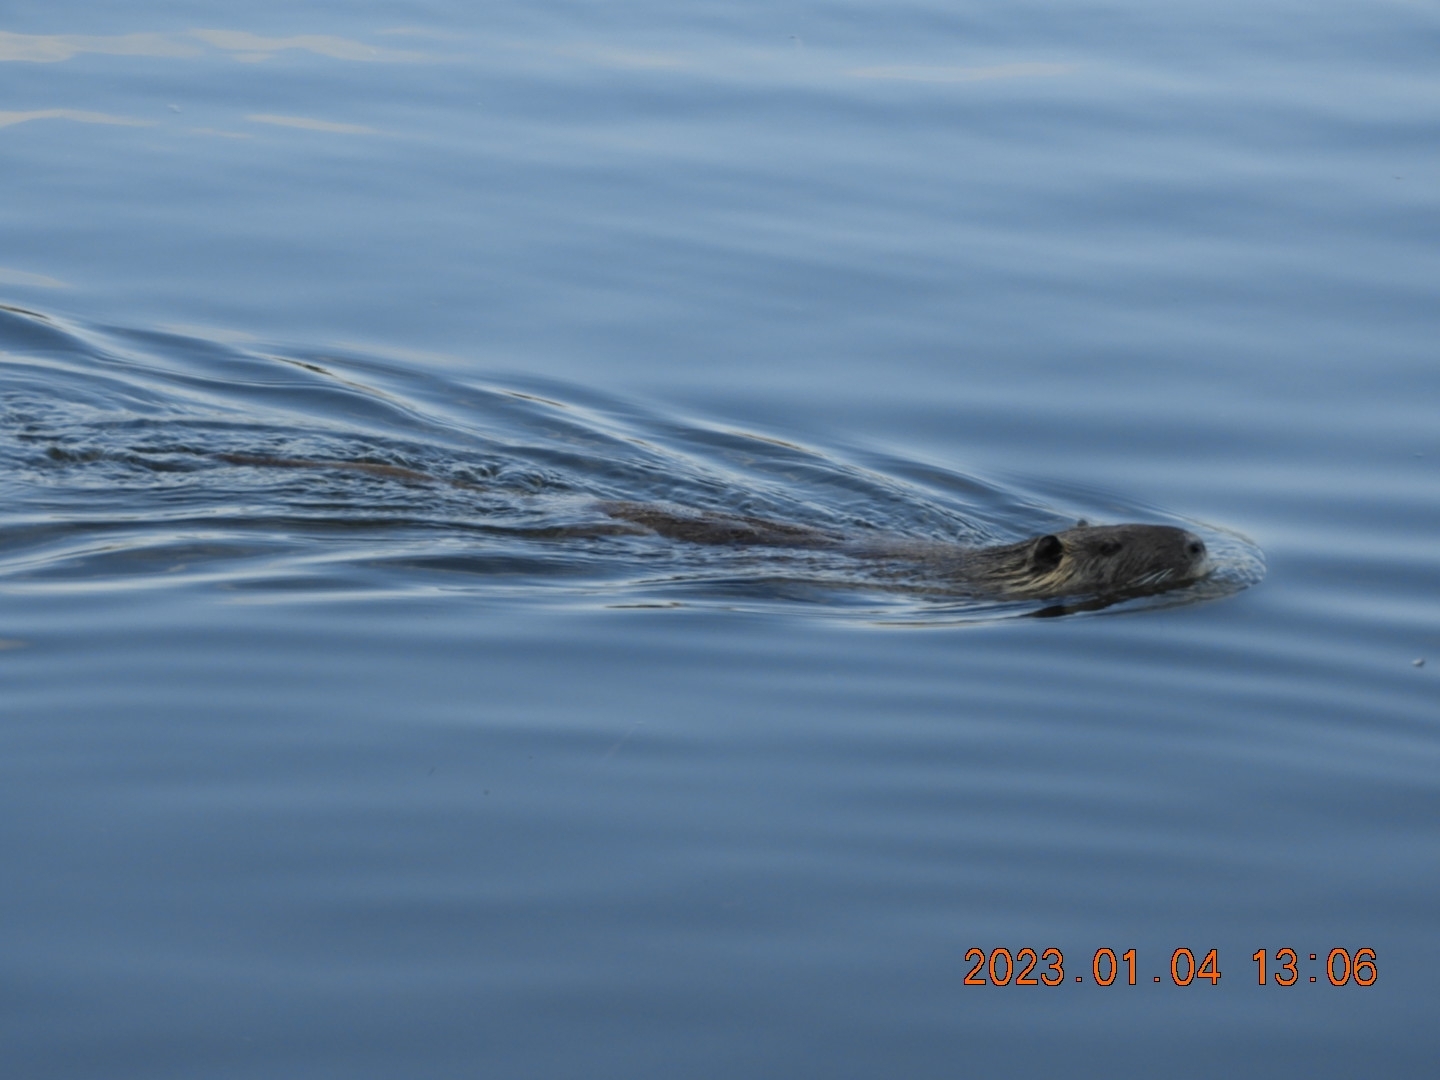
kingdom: Animalia
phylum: Chordata
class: Mammalia
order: Rodentia
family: Myocastoridae
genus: Myocastor
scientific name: Myocastor coypus
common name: Coypu
